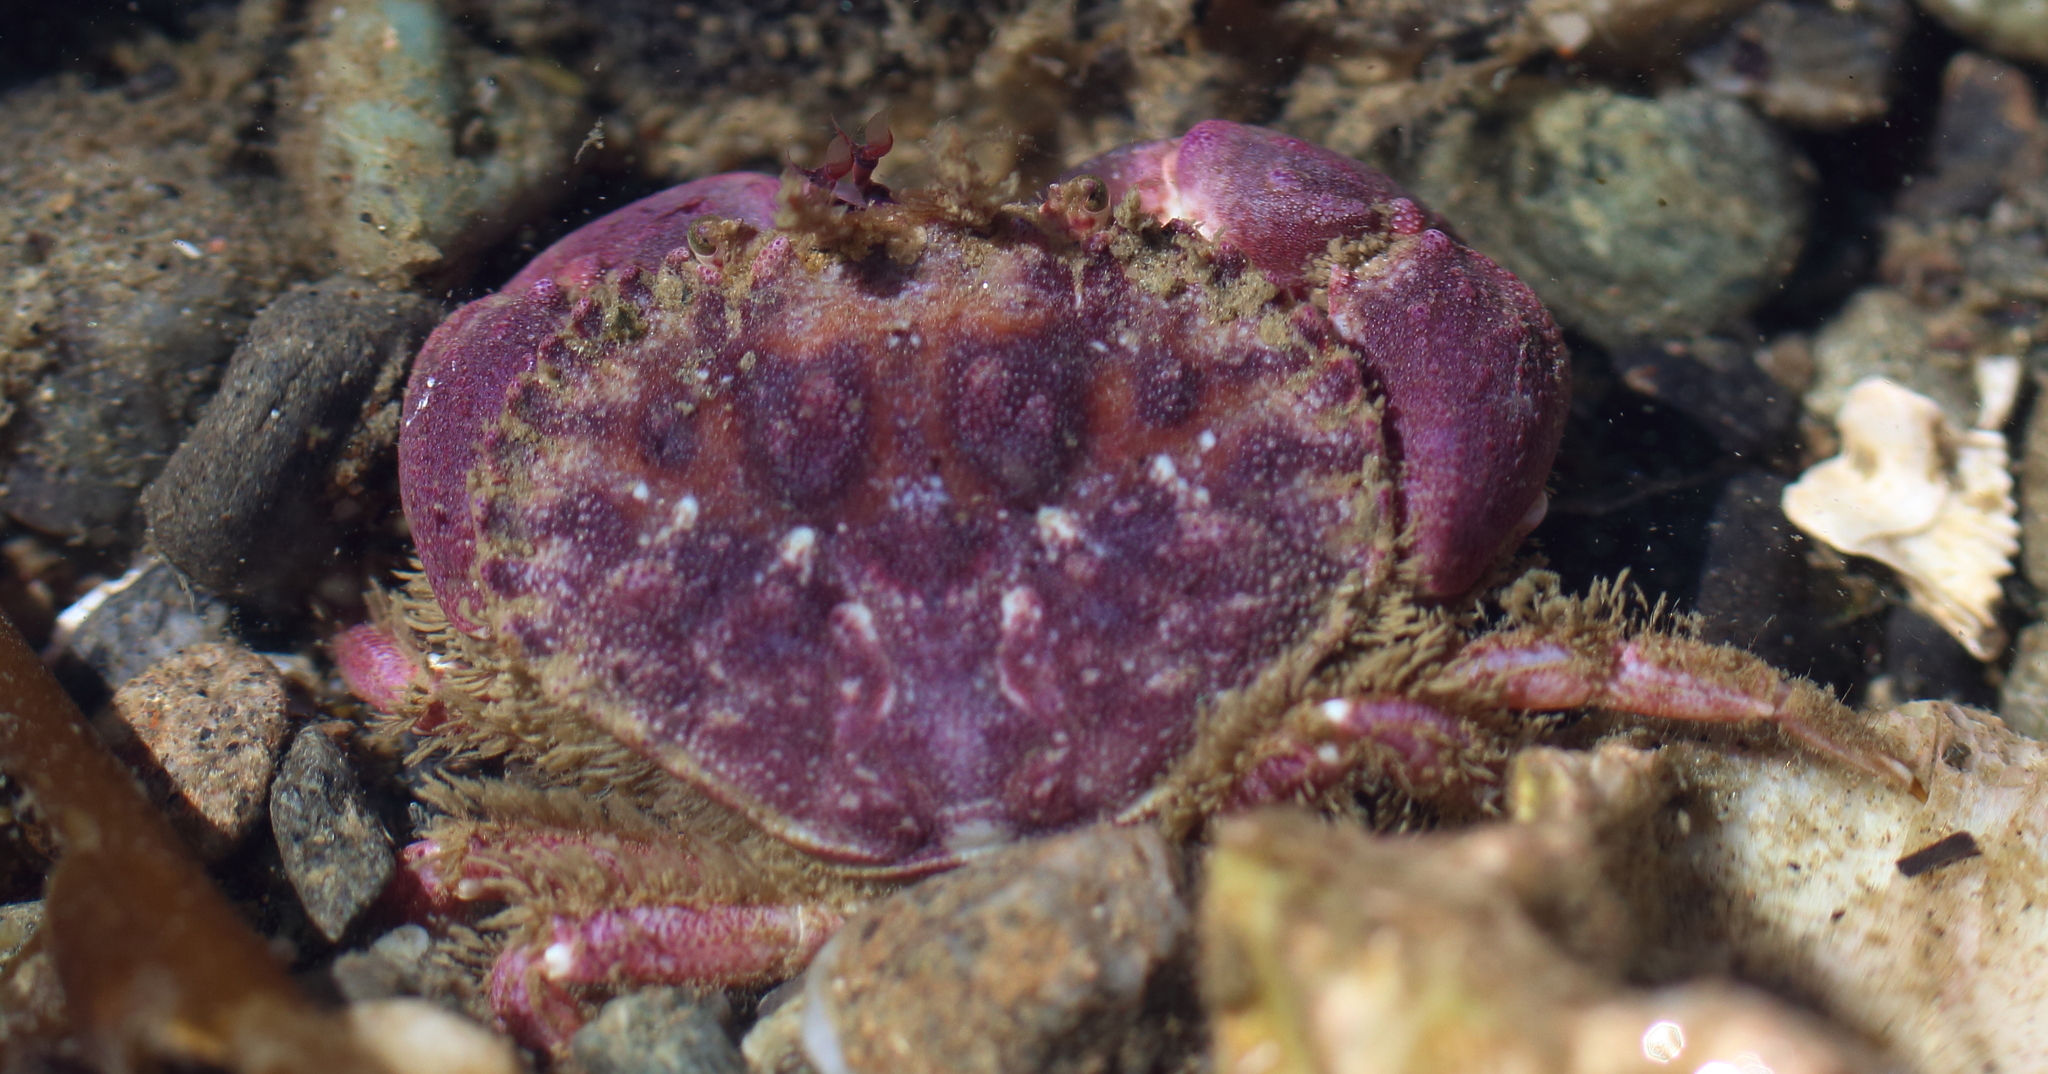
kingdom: Animalia
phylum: Arthropoda
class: Malacostraca
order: Decapoda
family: Cancridae
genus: Glebocarcinus
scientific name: Glebocarcinus oregonensis
